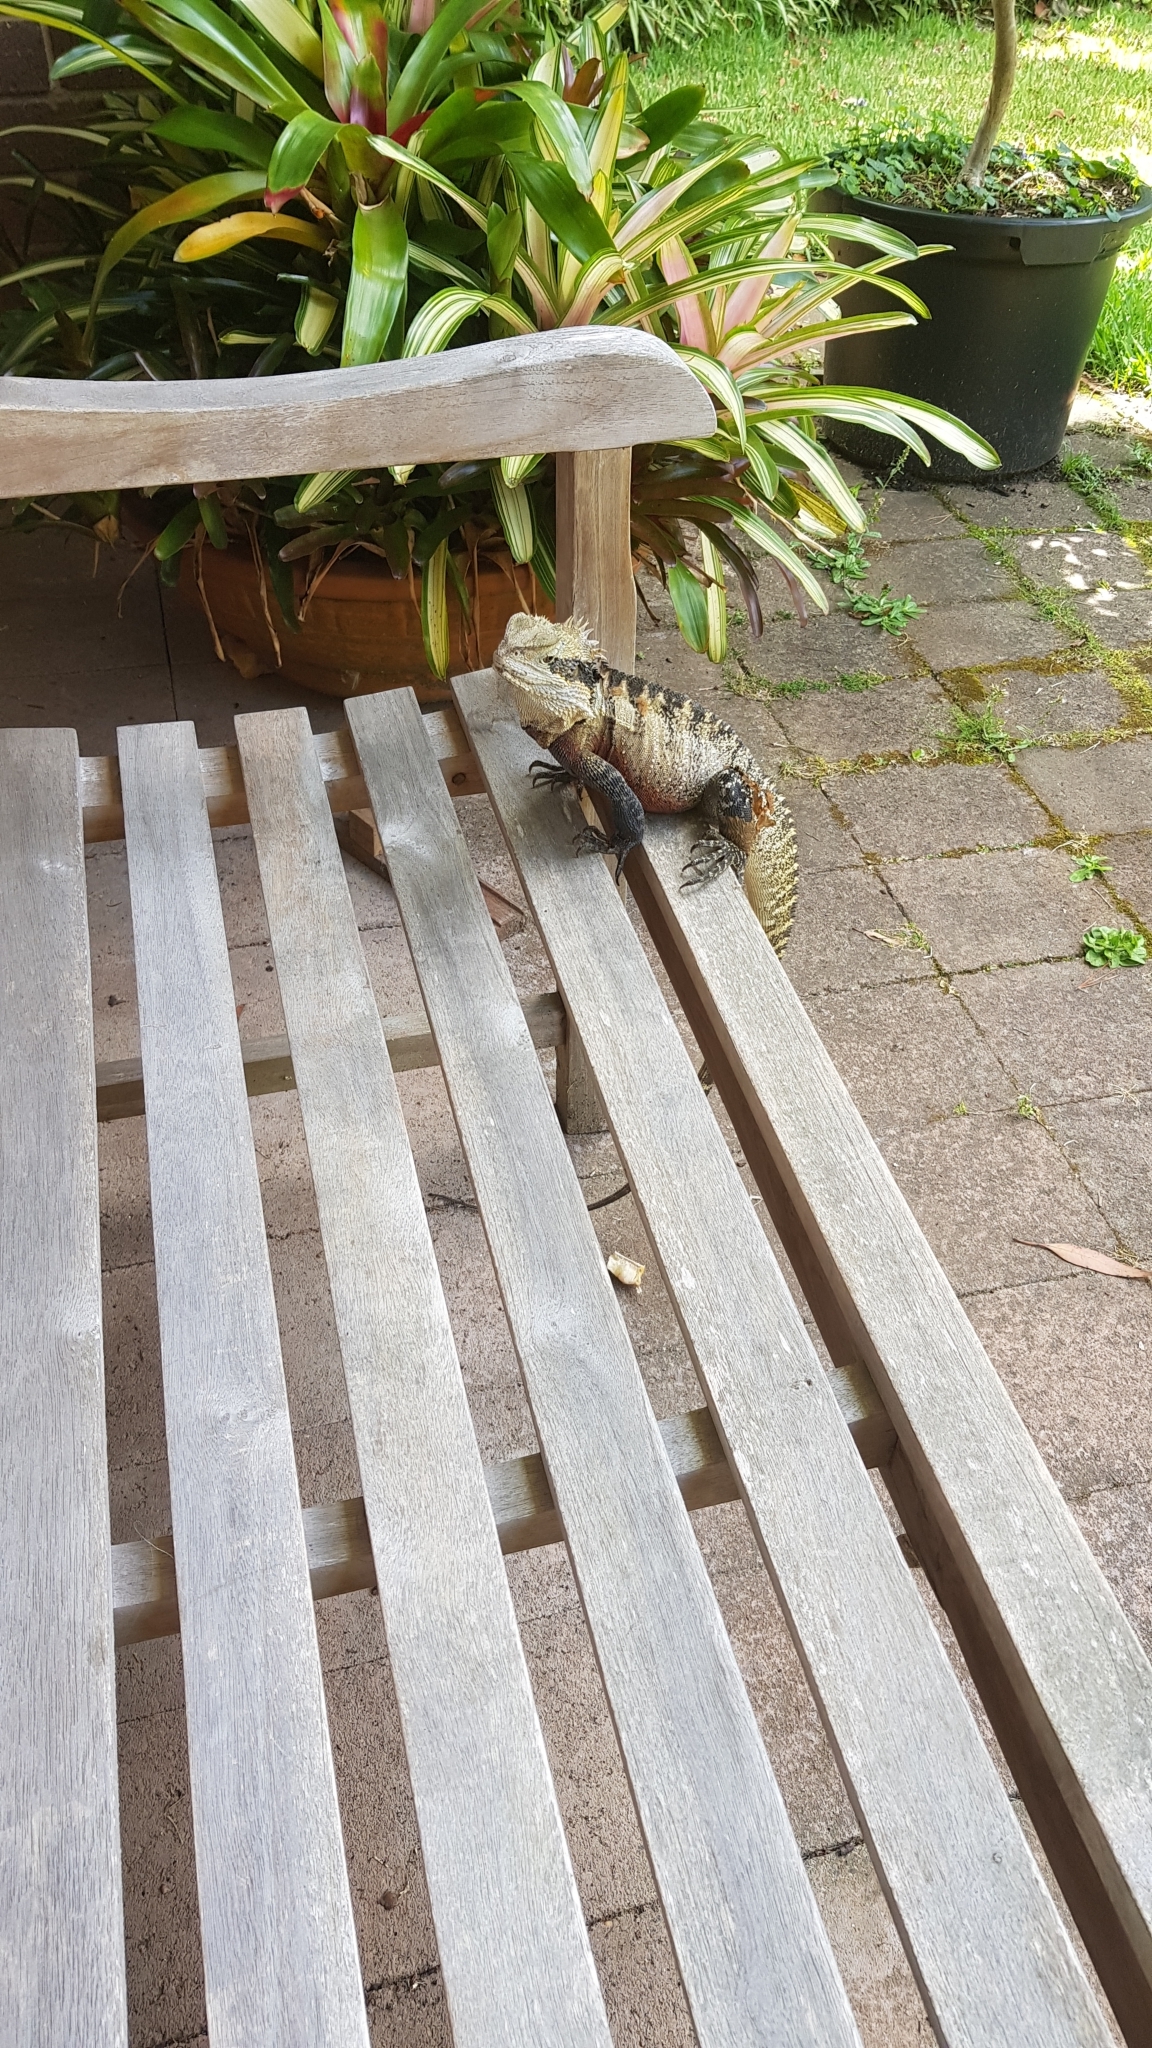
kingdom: Animalia
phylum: Chordata
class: Squamata
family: Agamidae
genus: Intellagama
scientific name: Intellagama lesueurii
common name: Eastern water dragon
